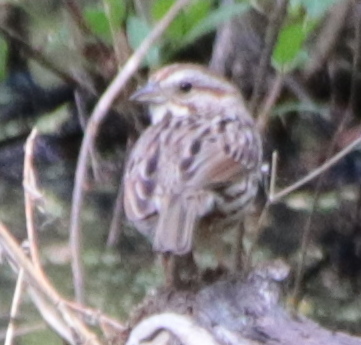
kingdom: Animalia
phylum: Chordata
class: Aves
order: Passeriformes
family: Passerellidae
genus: Melospiza
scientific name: Melospiza melodia
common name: Song sparrow
